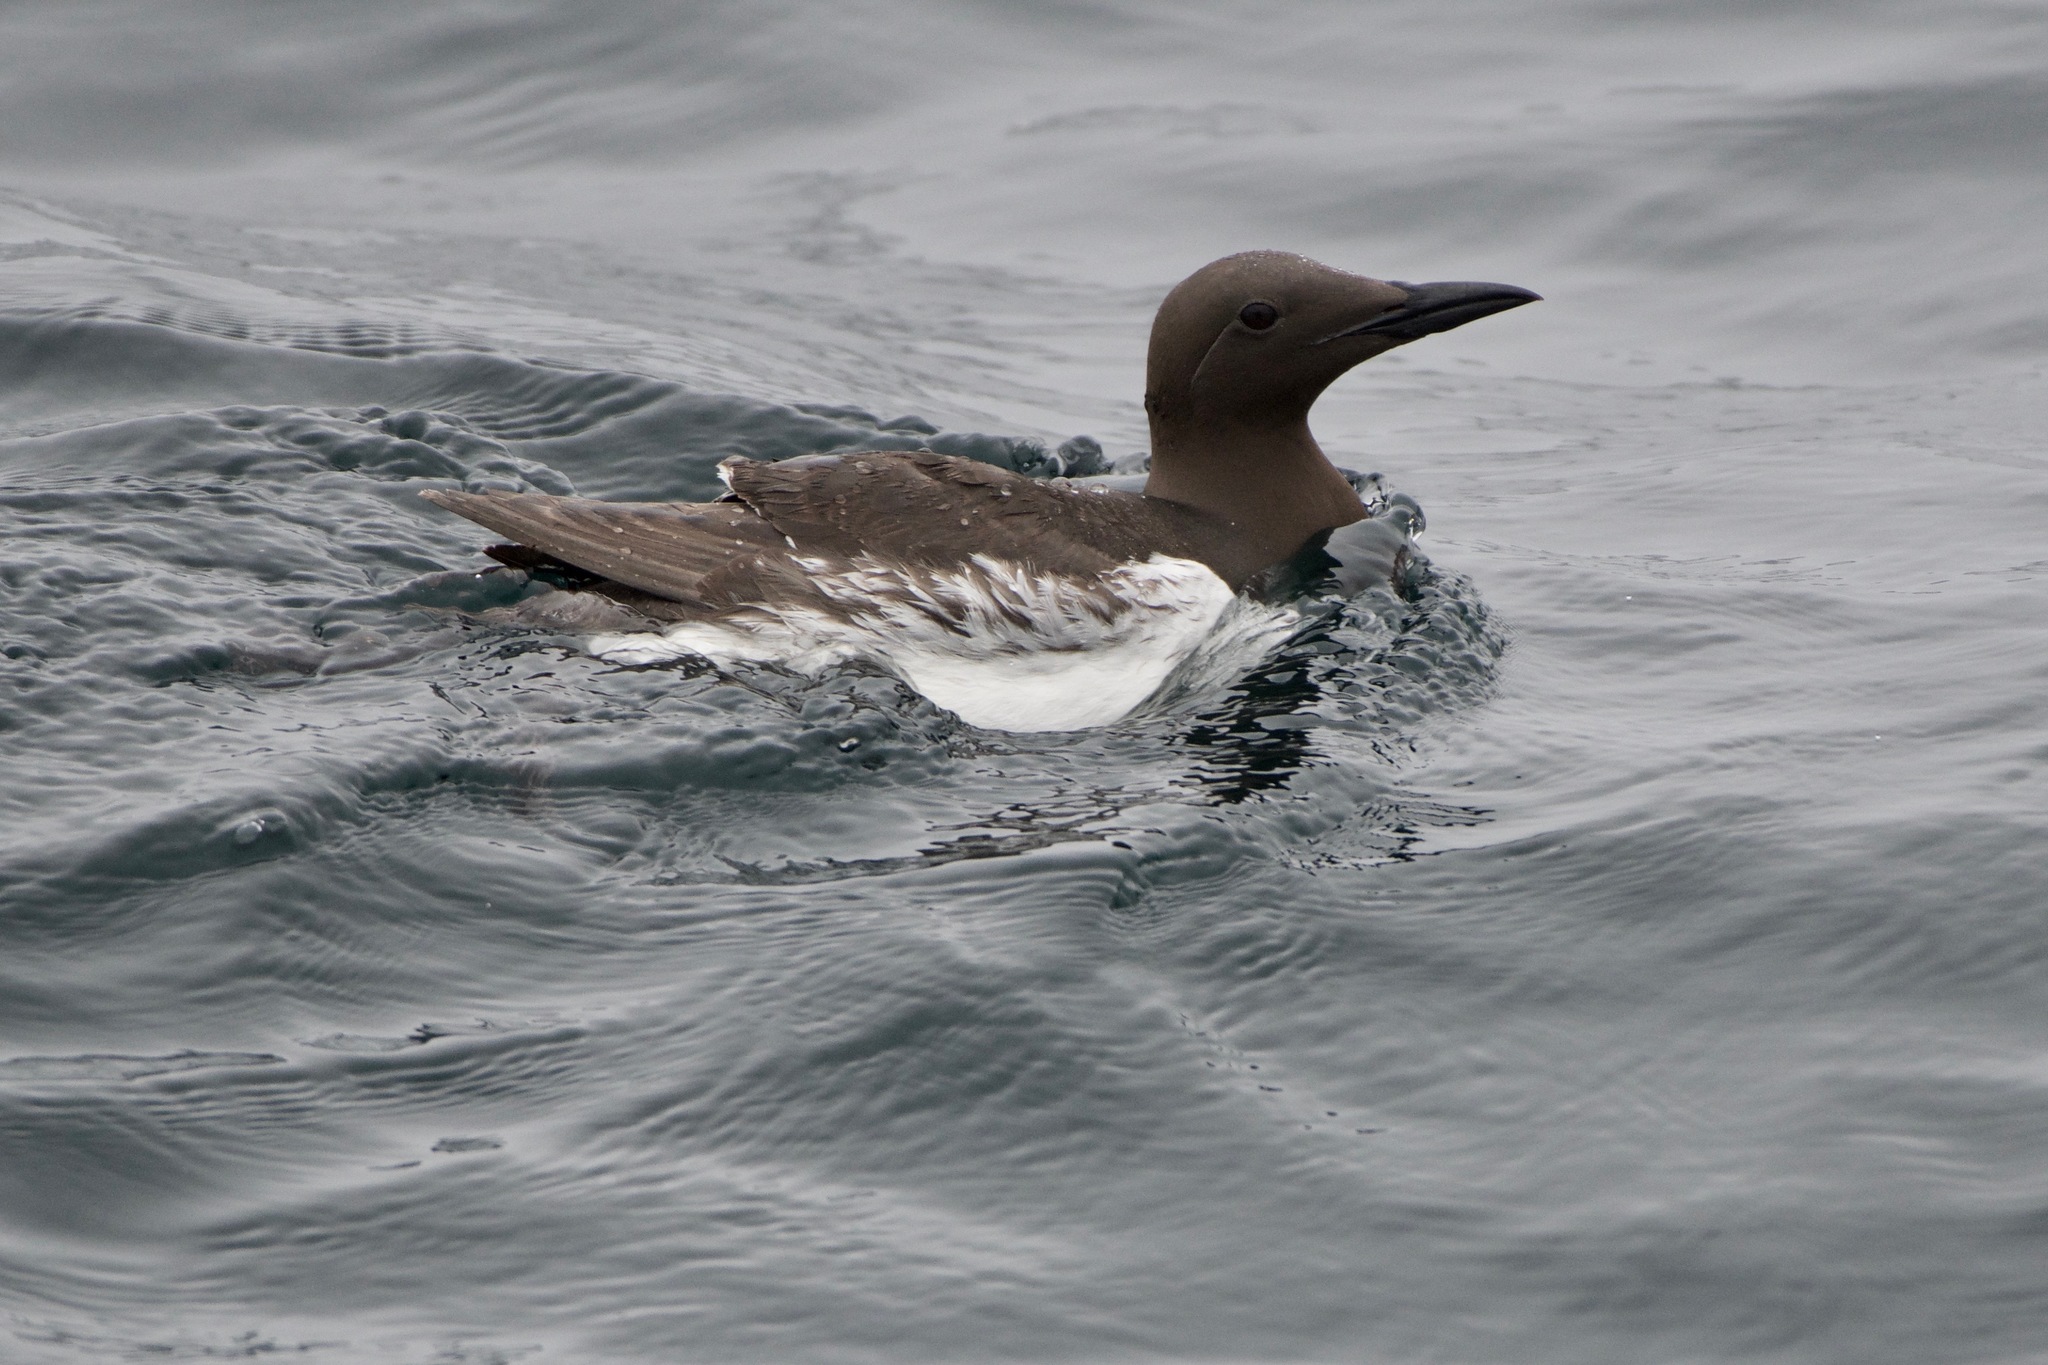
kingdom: Animalia
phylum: Chordata
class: Aves
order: Charadriiformes
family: Alcidae
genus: Uria
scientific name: Uria aalge
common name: Common murre
